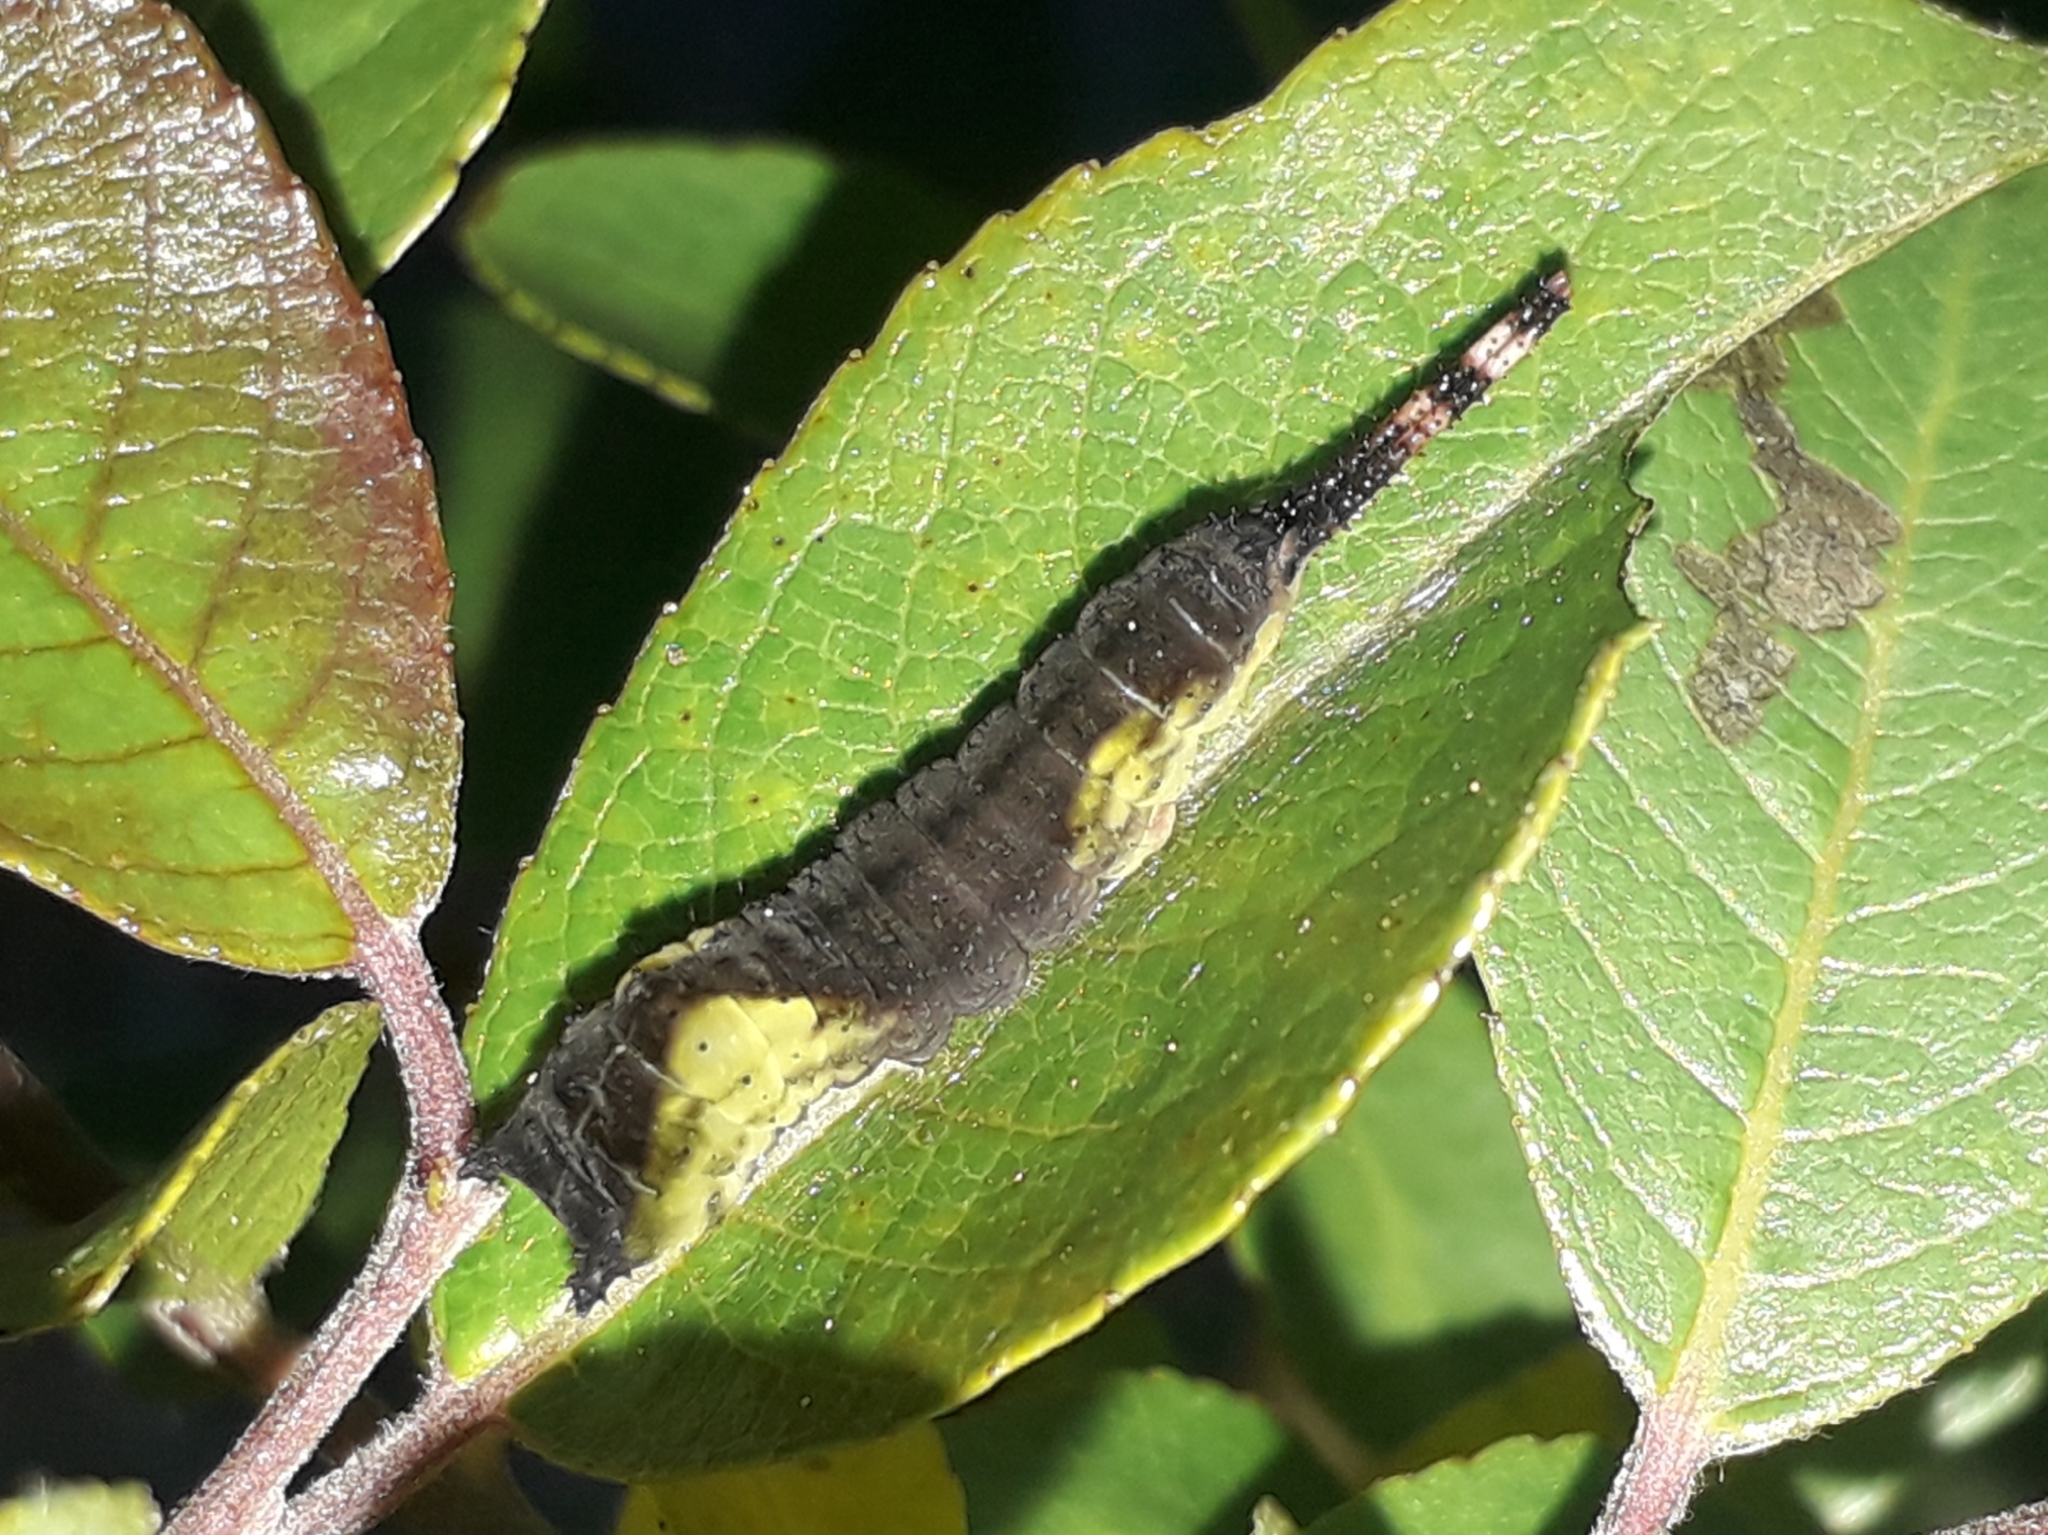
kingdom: Animalia
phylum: Arthropoda
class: Insecta
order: Lepidoptera
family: Notodontidae
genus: Cerura
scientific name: Cerura vinula
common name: Puss moth
